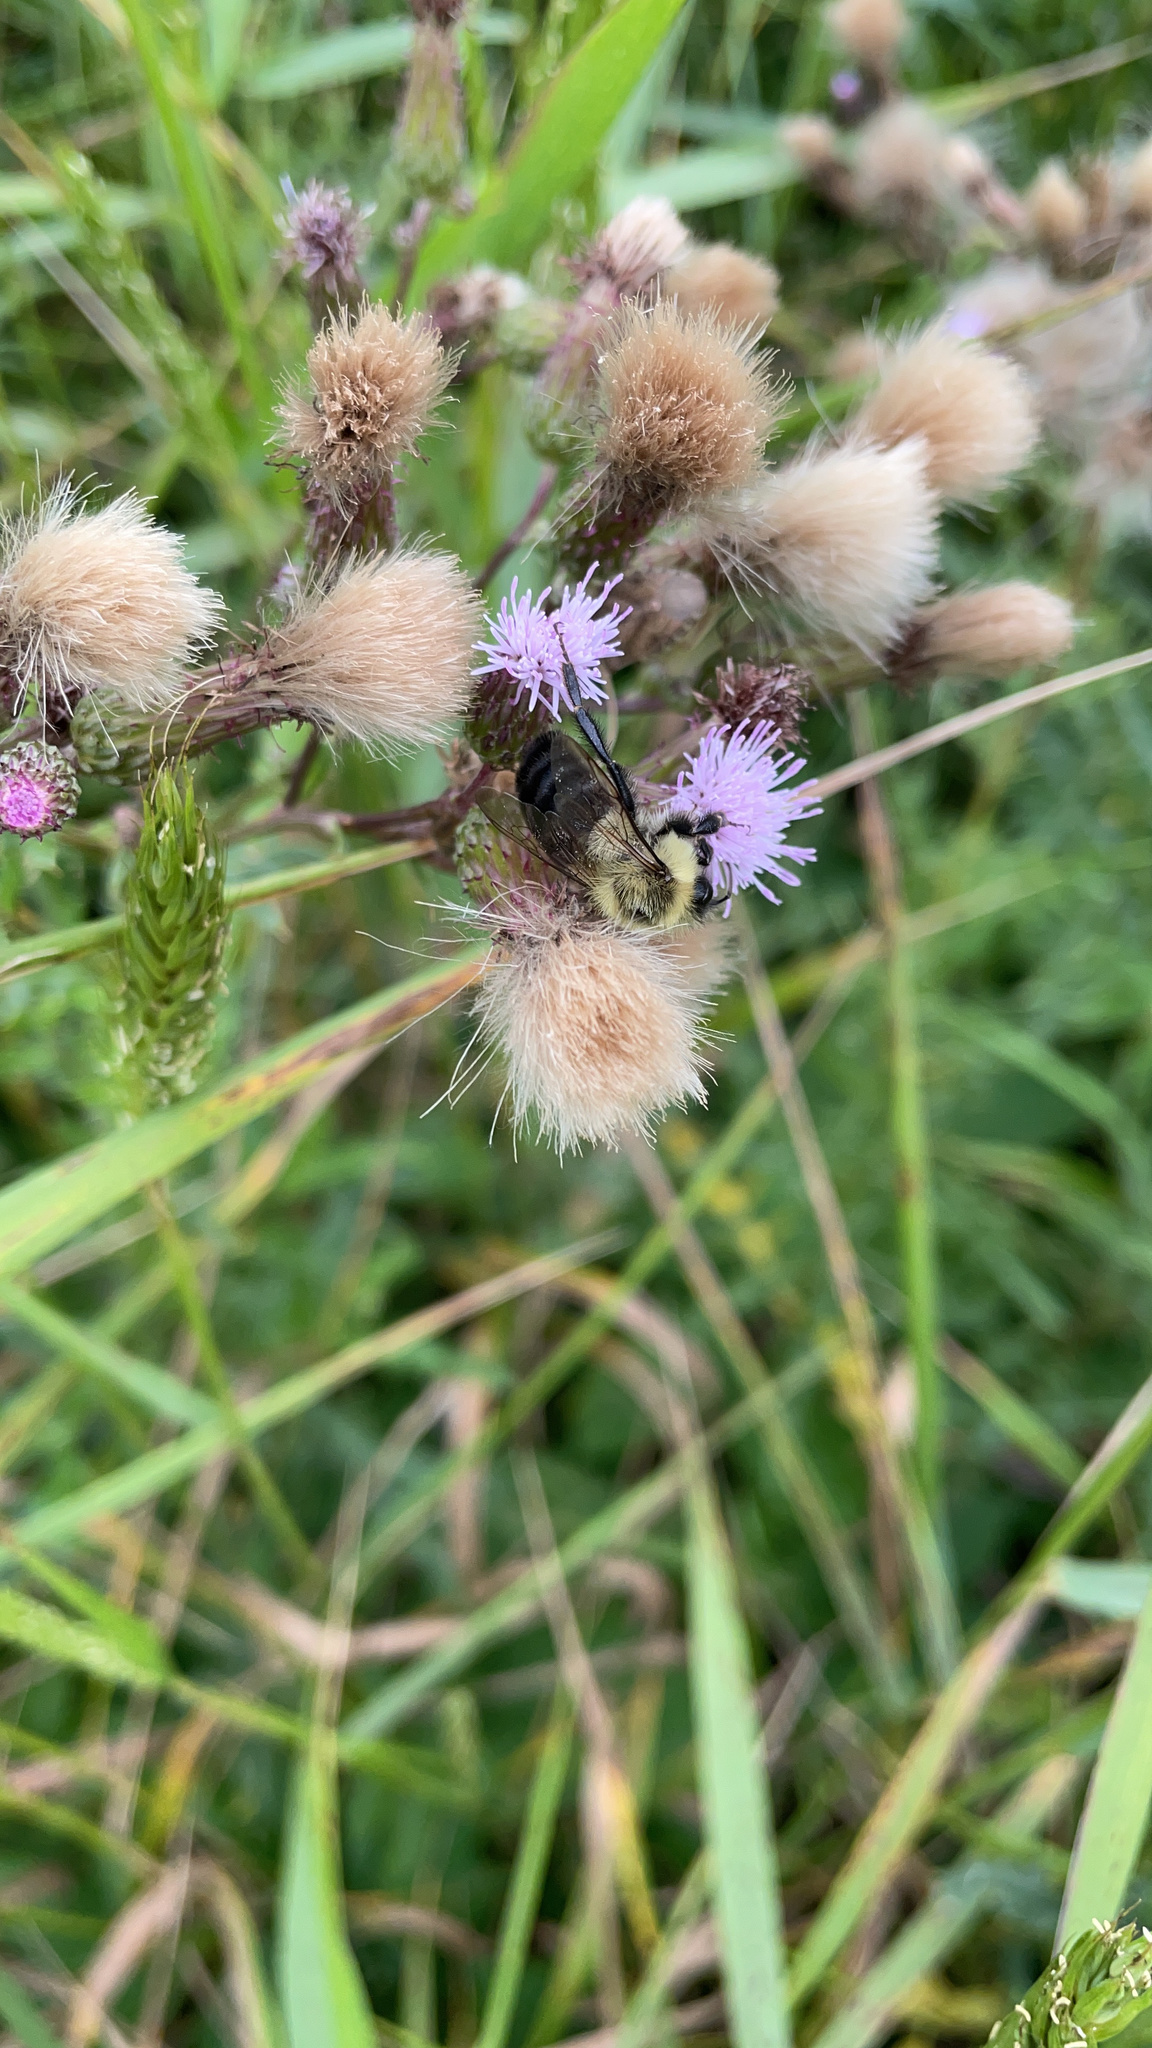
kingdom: Animalia
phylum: Arthropoda
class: Insecta
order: Hymenoptera
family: Apidae
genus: Bombus
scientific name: Bombus impatiens
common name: Common eastern bumble bee
